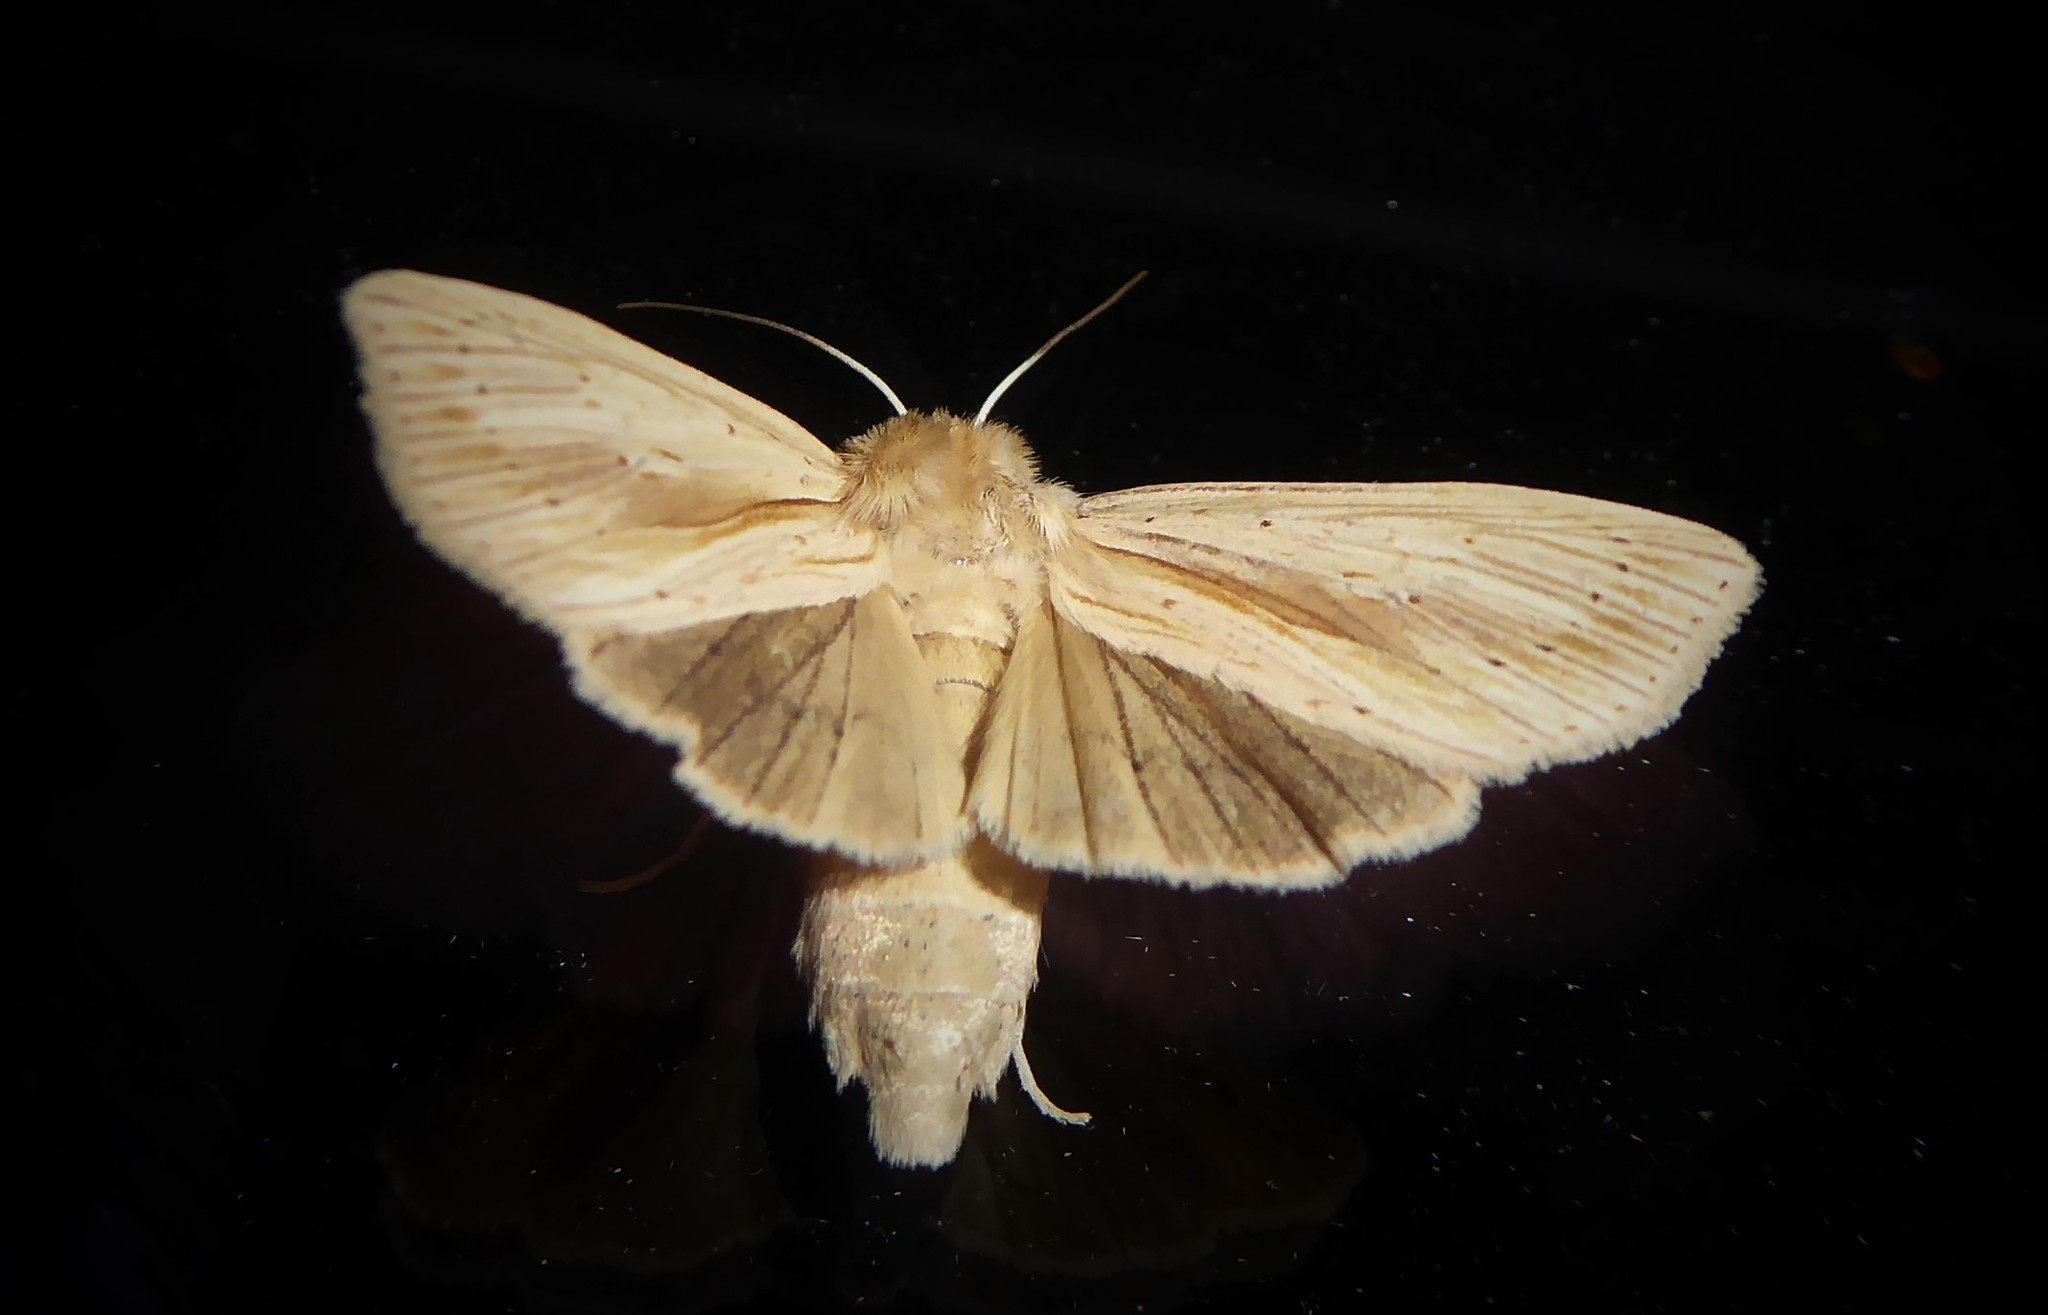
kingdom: Animalia
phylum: Arthropoda
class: Insecta
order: Lepidoptera
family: Noctuidae
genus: Ichneutica
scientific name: Ichneutica semivittata
